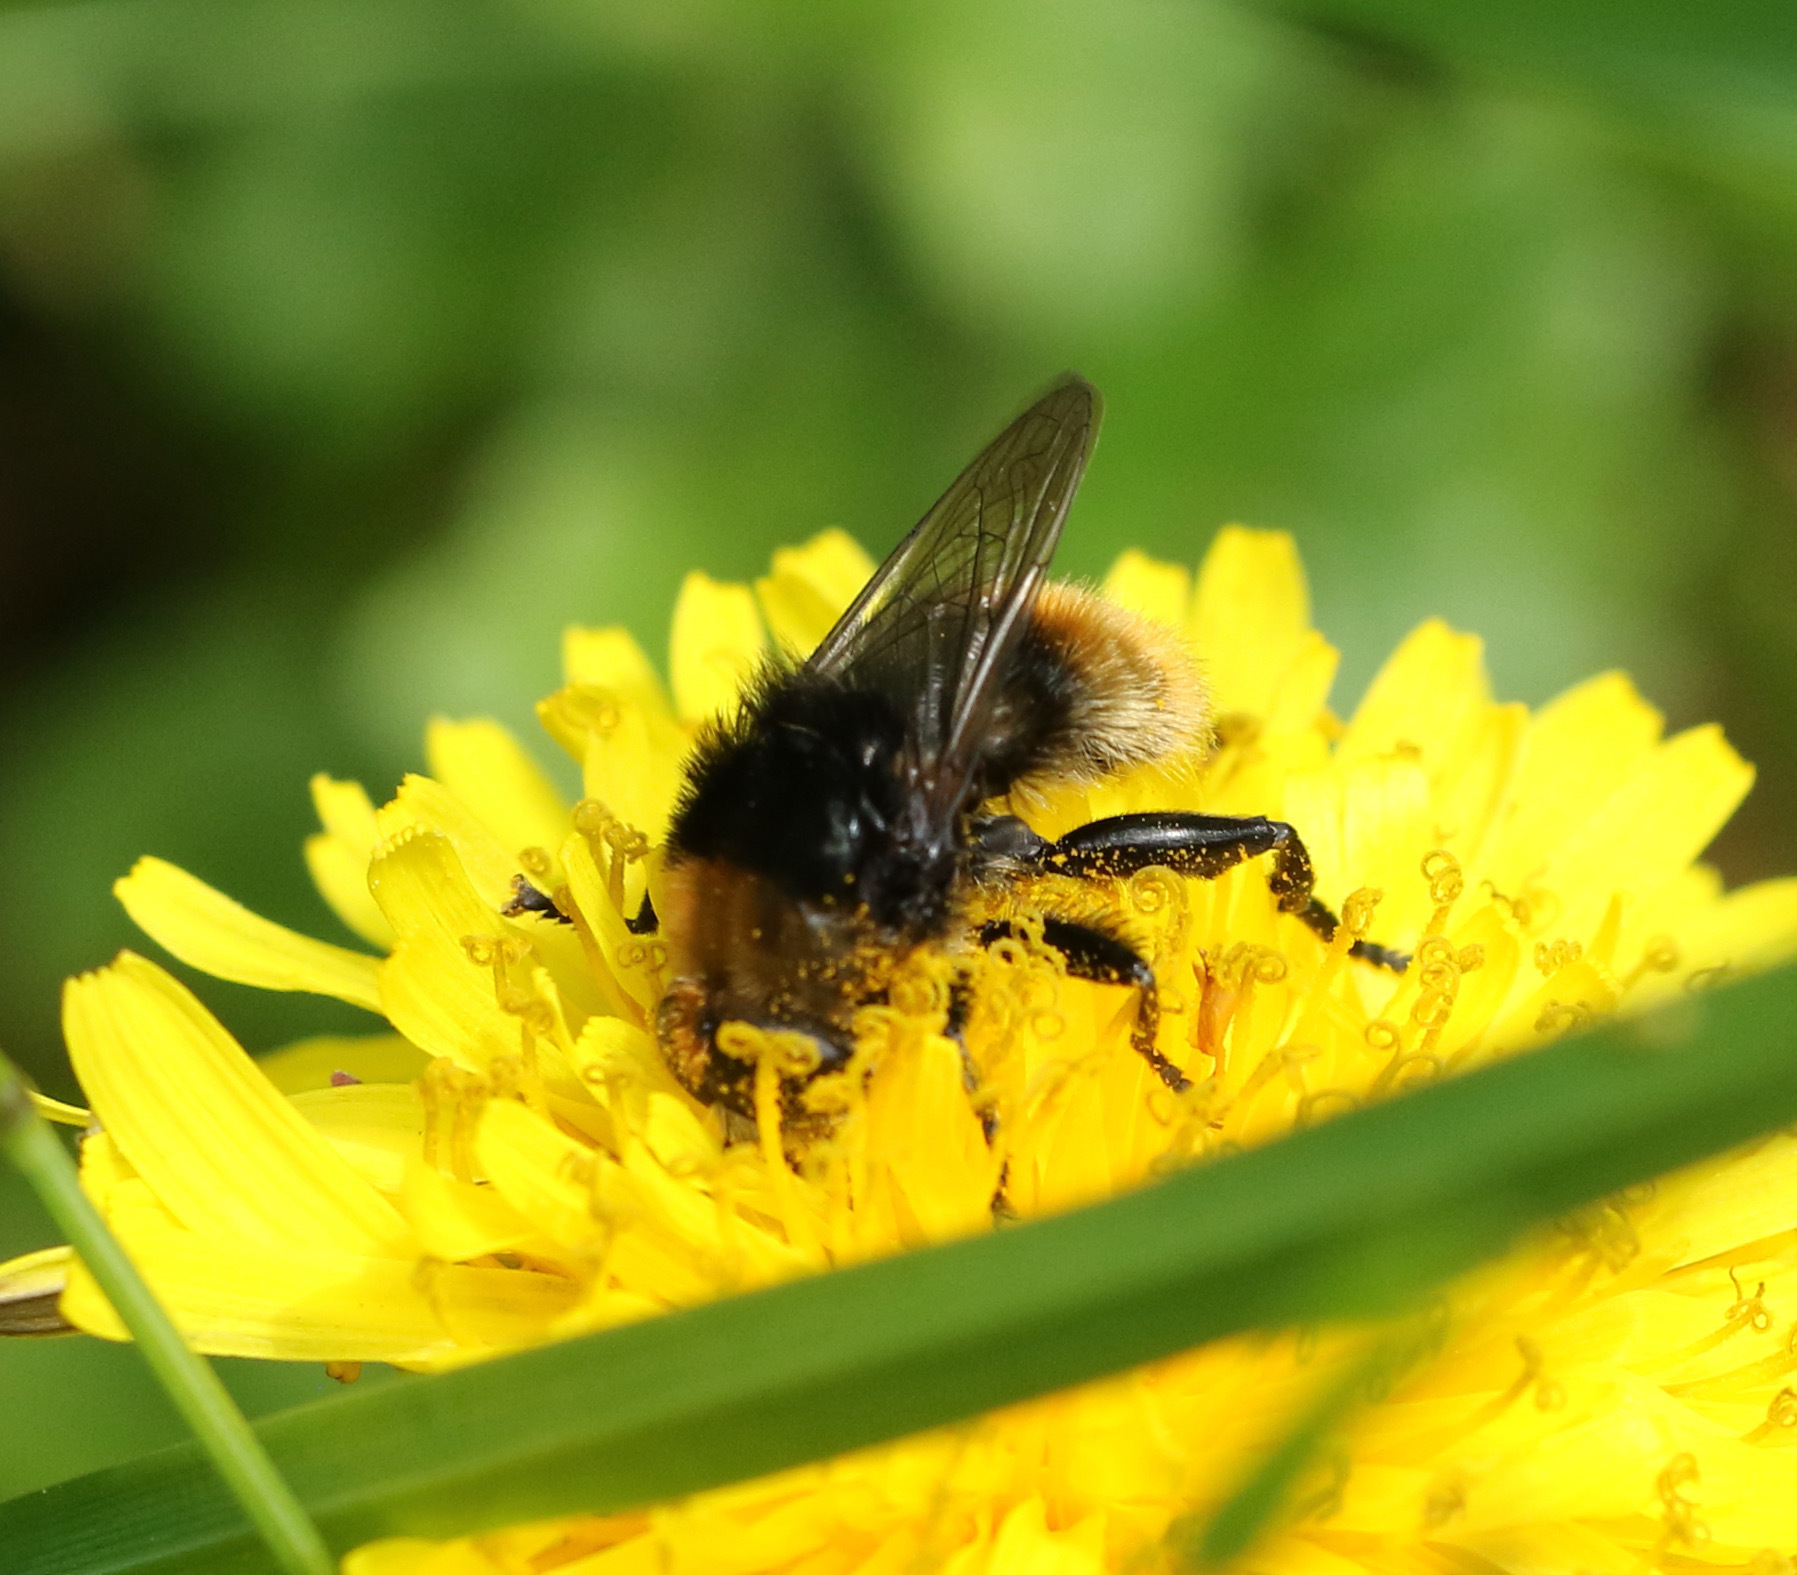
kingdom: Animalia
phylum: Arthropoda
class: Insecta
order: Diptera
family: Syrphidae
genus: Merodon
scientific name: Merodon equestris
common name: Greater bulb-fly
